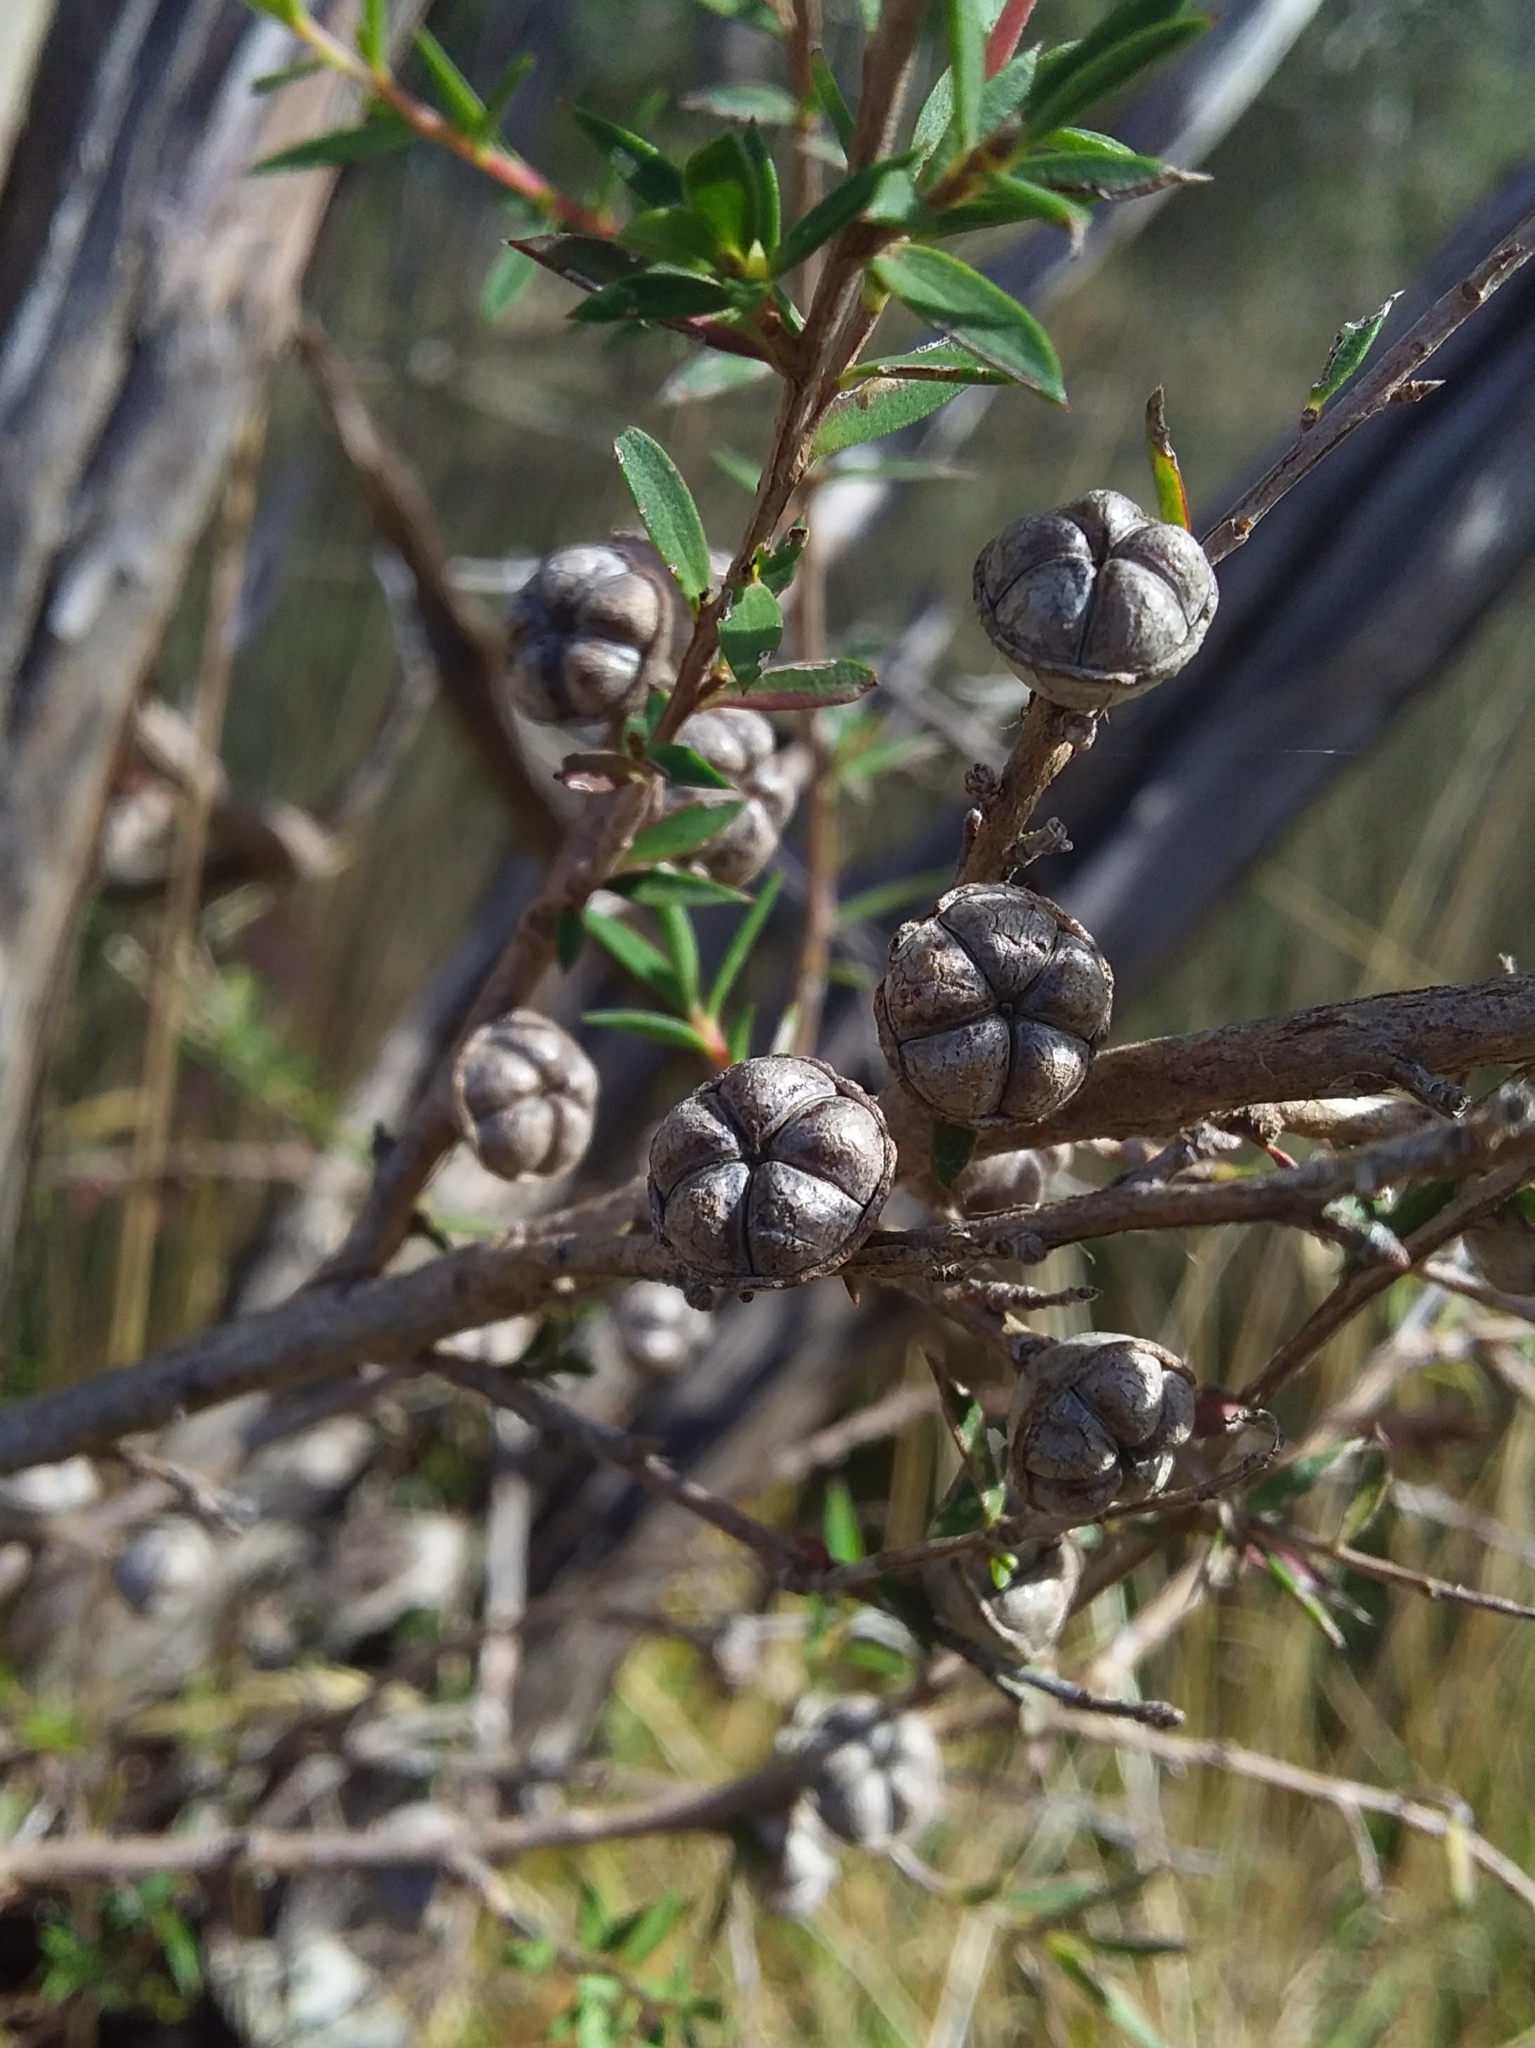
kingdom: Plantae
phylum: Tracheophyta
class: Magnoliopsida
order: Myrtales
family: Myrtaceae
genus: Leptospermum
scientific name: Leptospermum continentale
